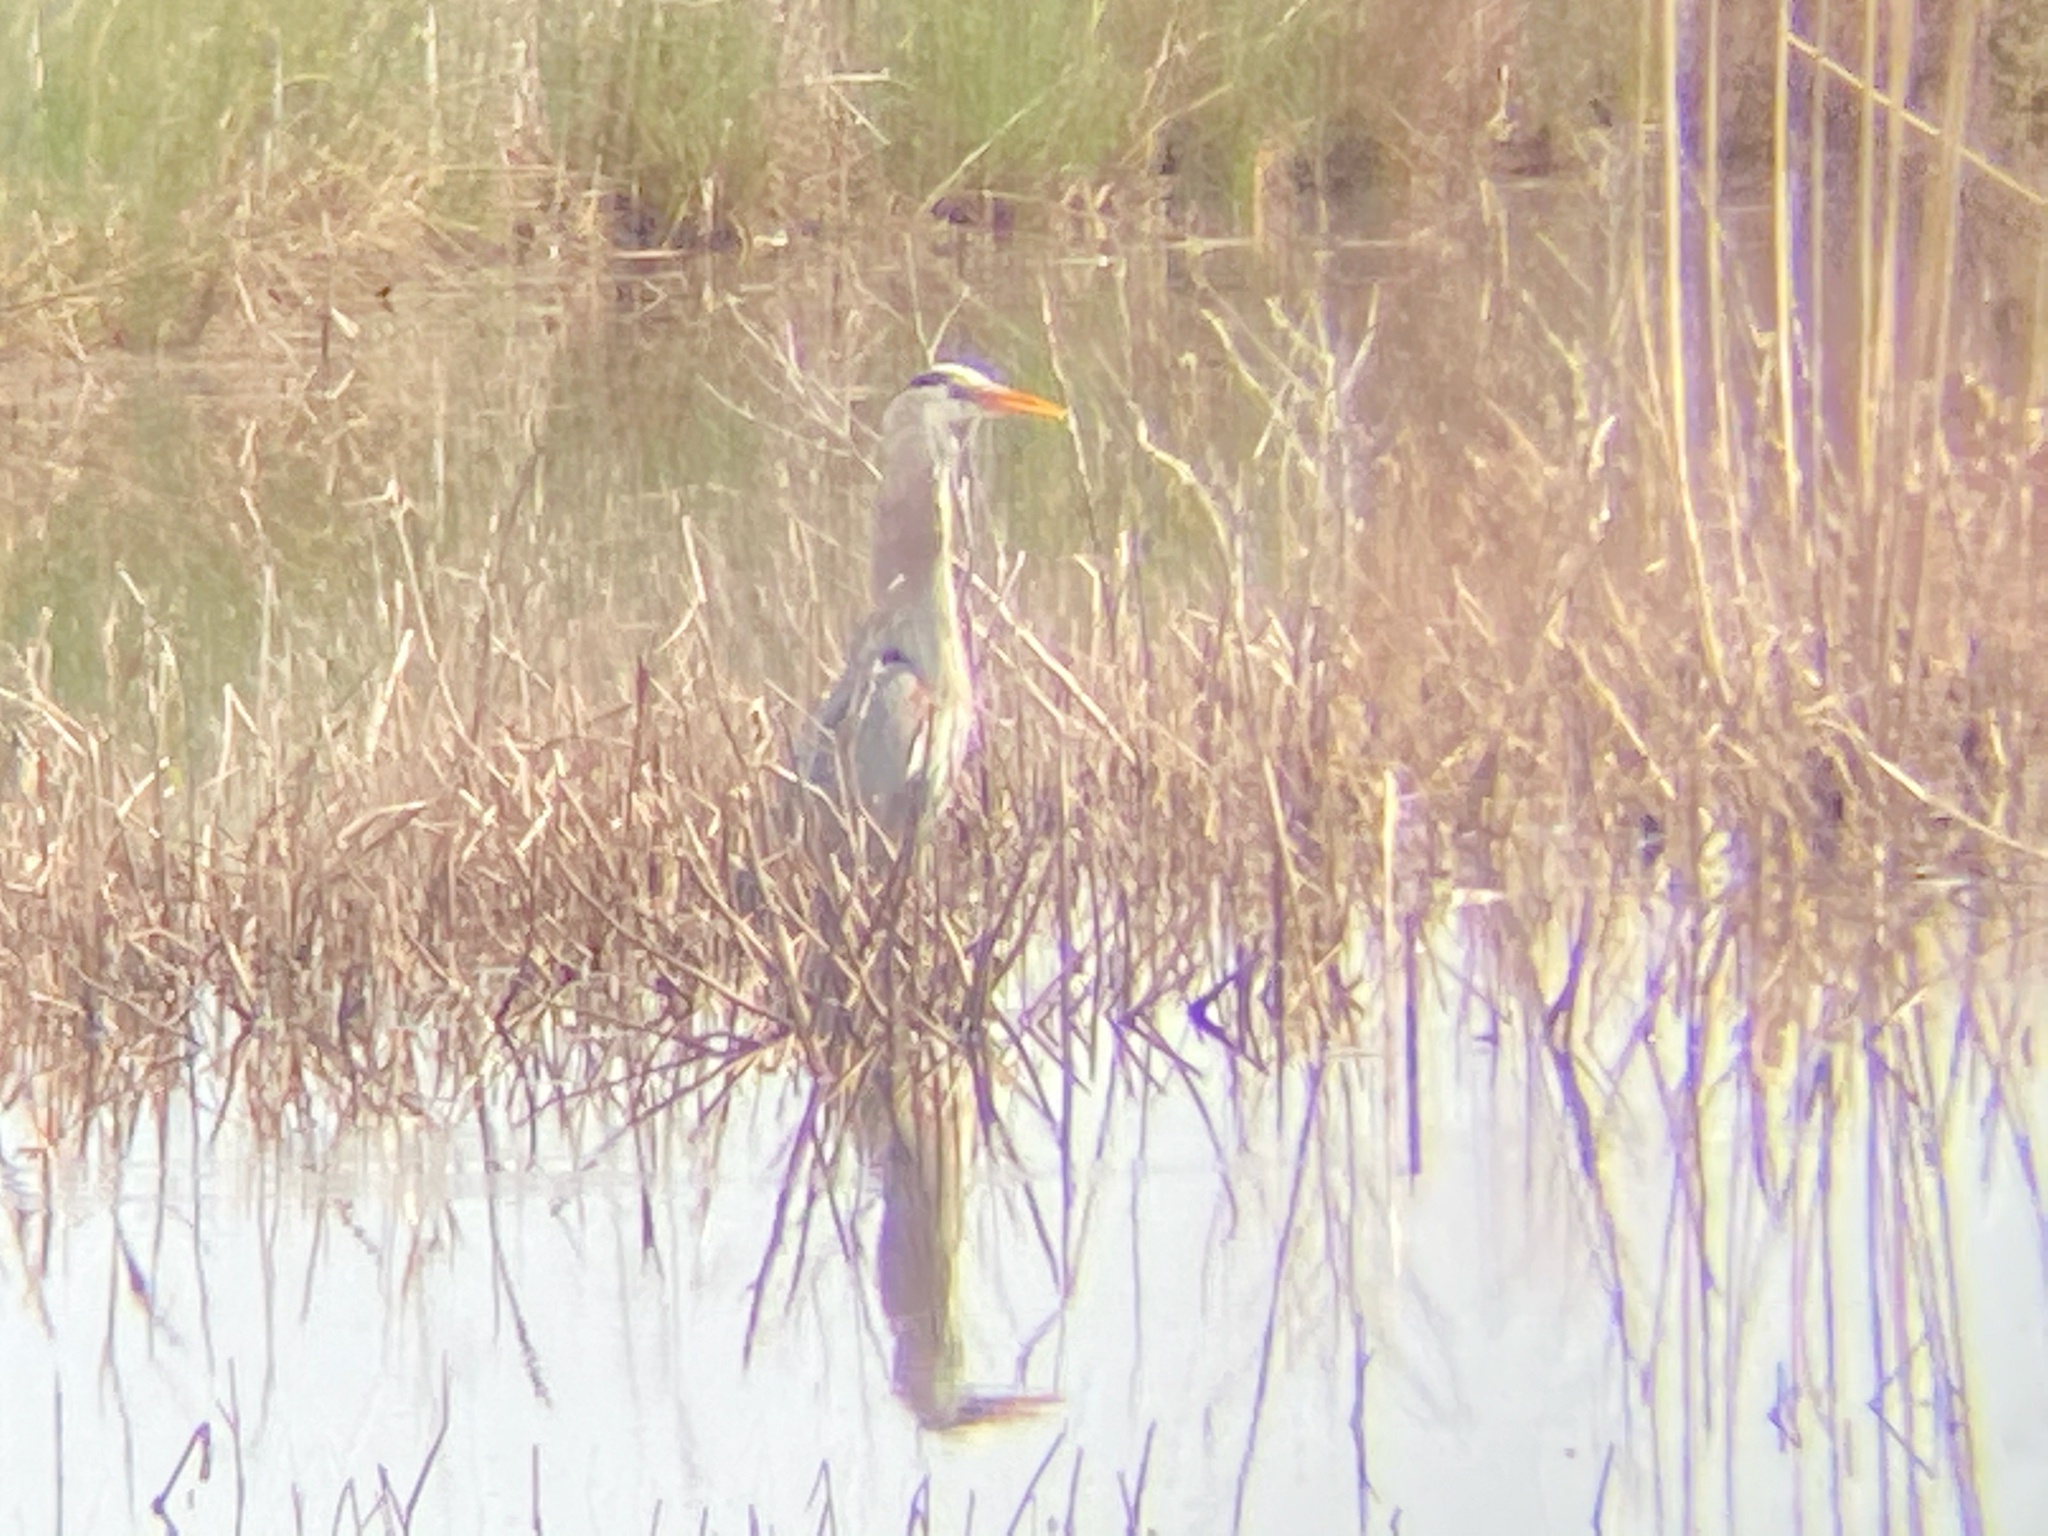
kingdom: Animalia
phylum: Chordata
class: Aves
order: Pelecaniformes
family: Ardeidae
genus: Ardea
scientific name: Ardea herodias
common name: Great blue heron
